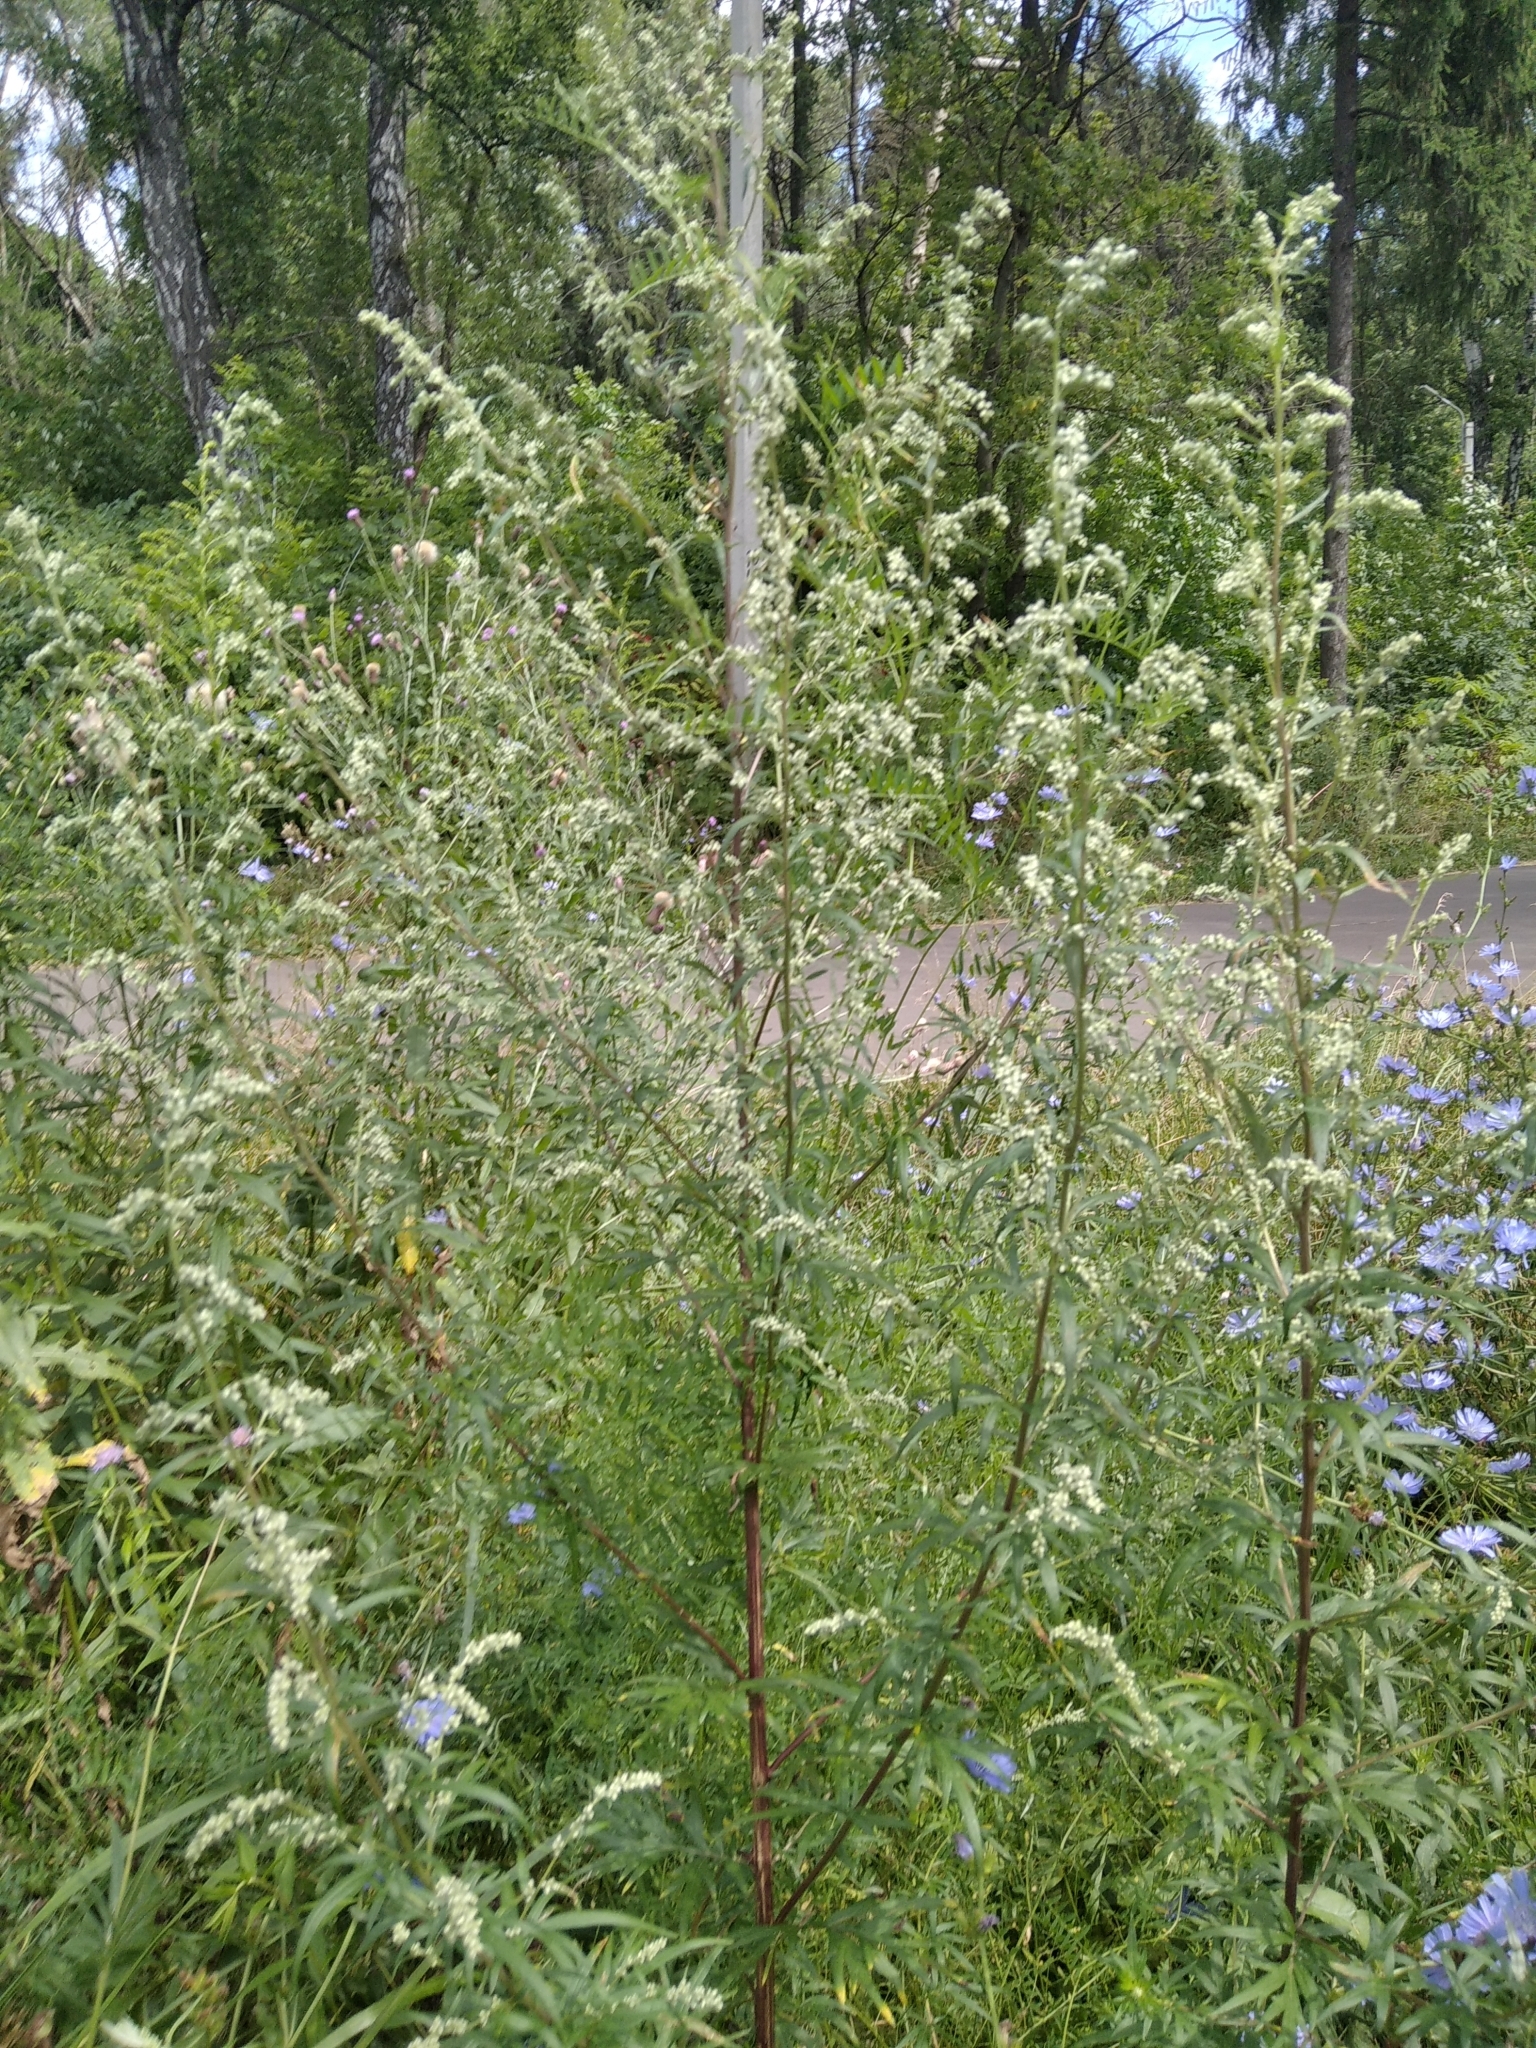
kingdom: Plantae
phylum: Tracheophyta
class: Magnoliopsida
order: Asterales
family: Asteraceae
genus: Artemisia
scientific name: Artemisia vulgaris
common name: Mugwort
